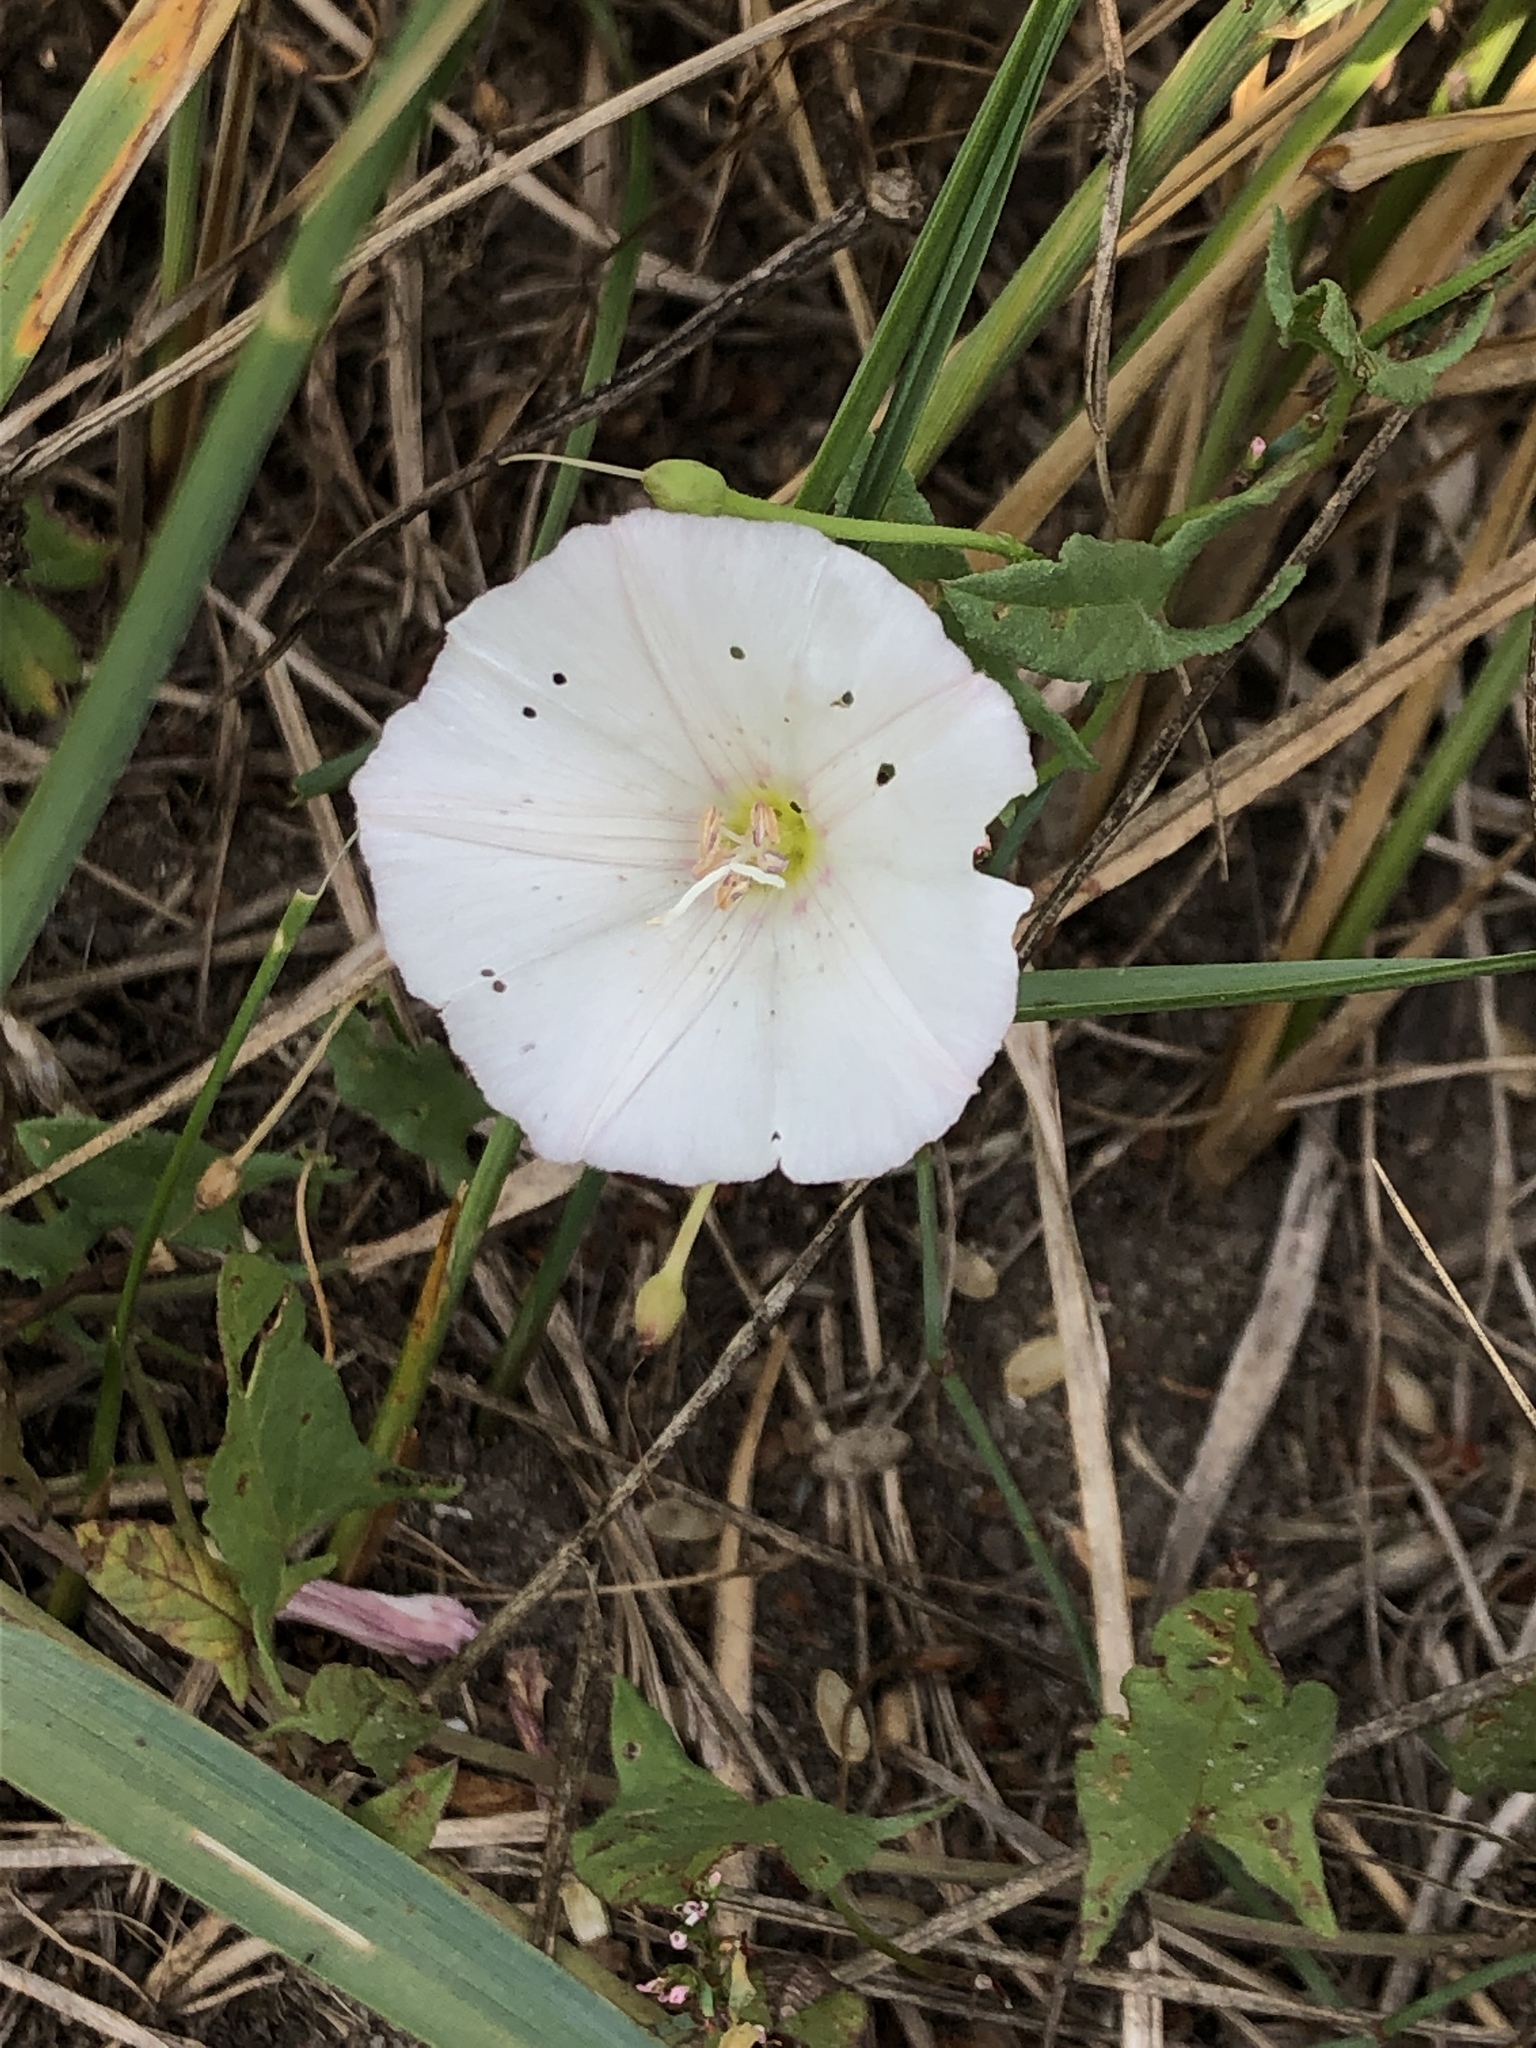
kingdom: Plantae
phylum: Tracheophyta
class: Magnoliopsida
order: Solanales
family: Convolvulaceae
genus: Convolvulus
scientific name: Convolvulus arvensis
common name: Field bindweed
